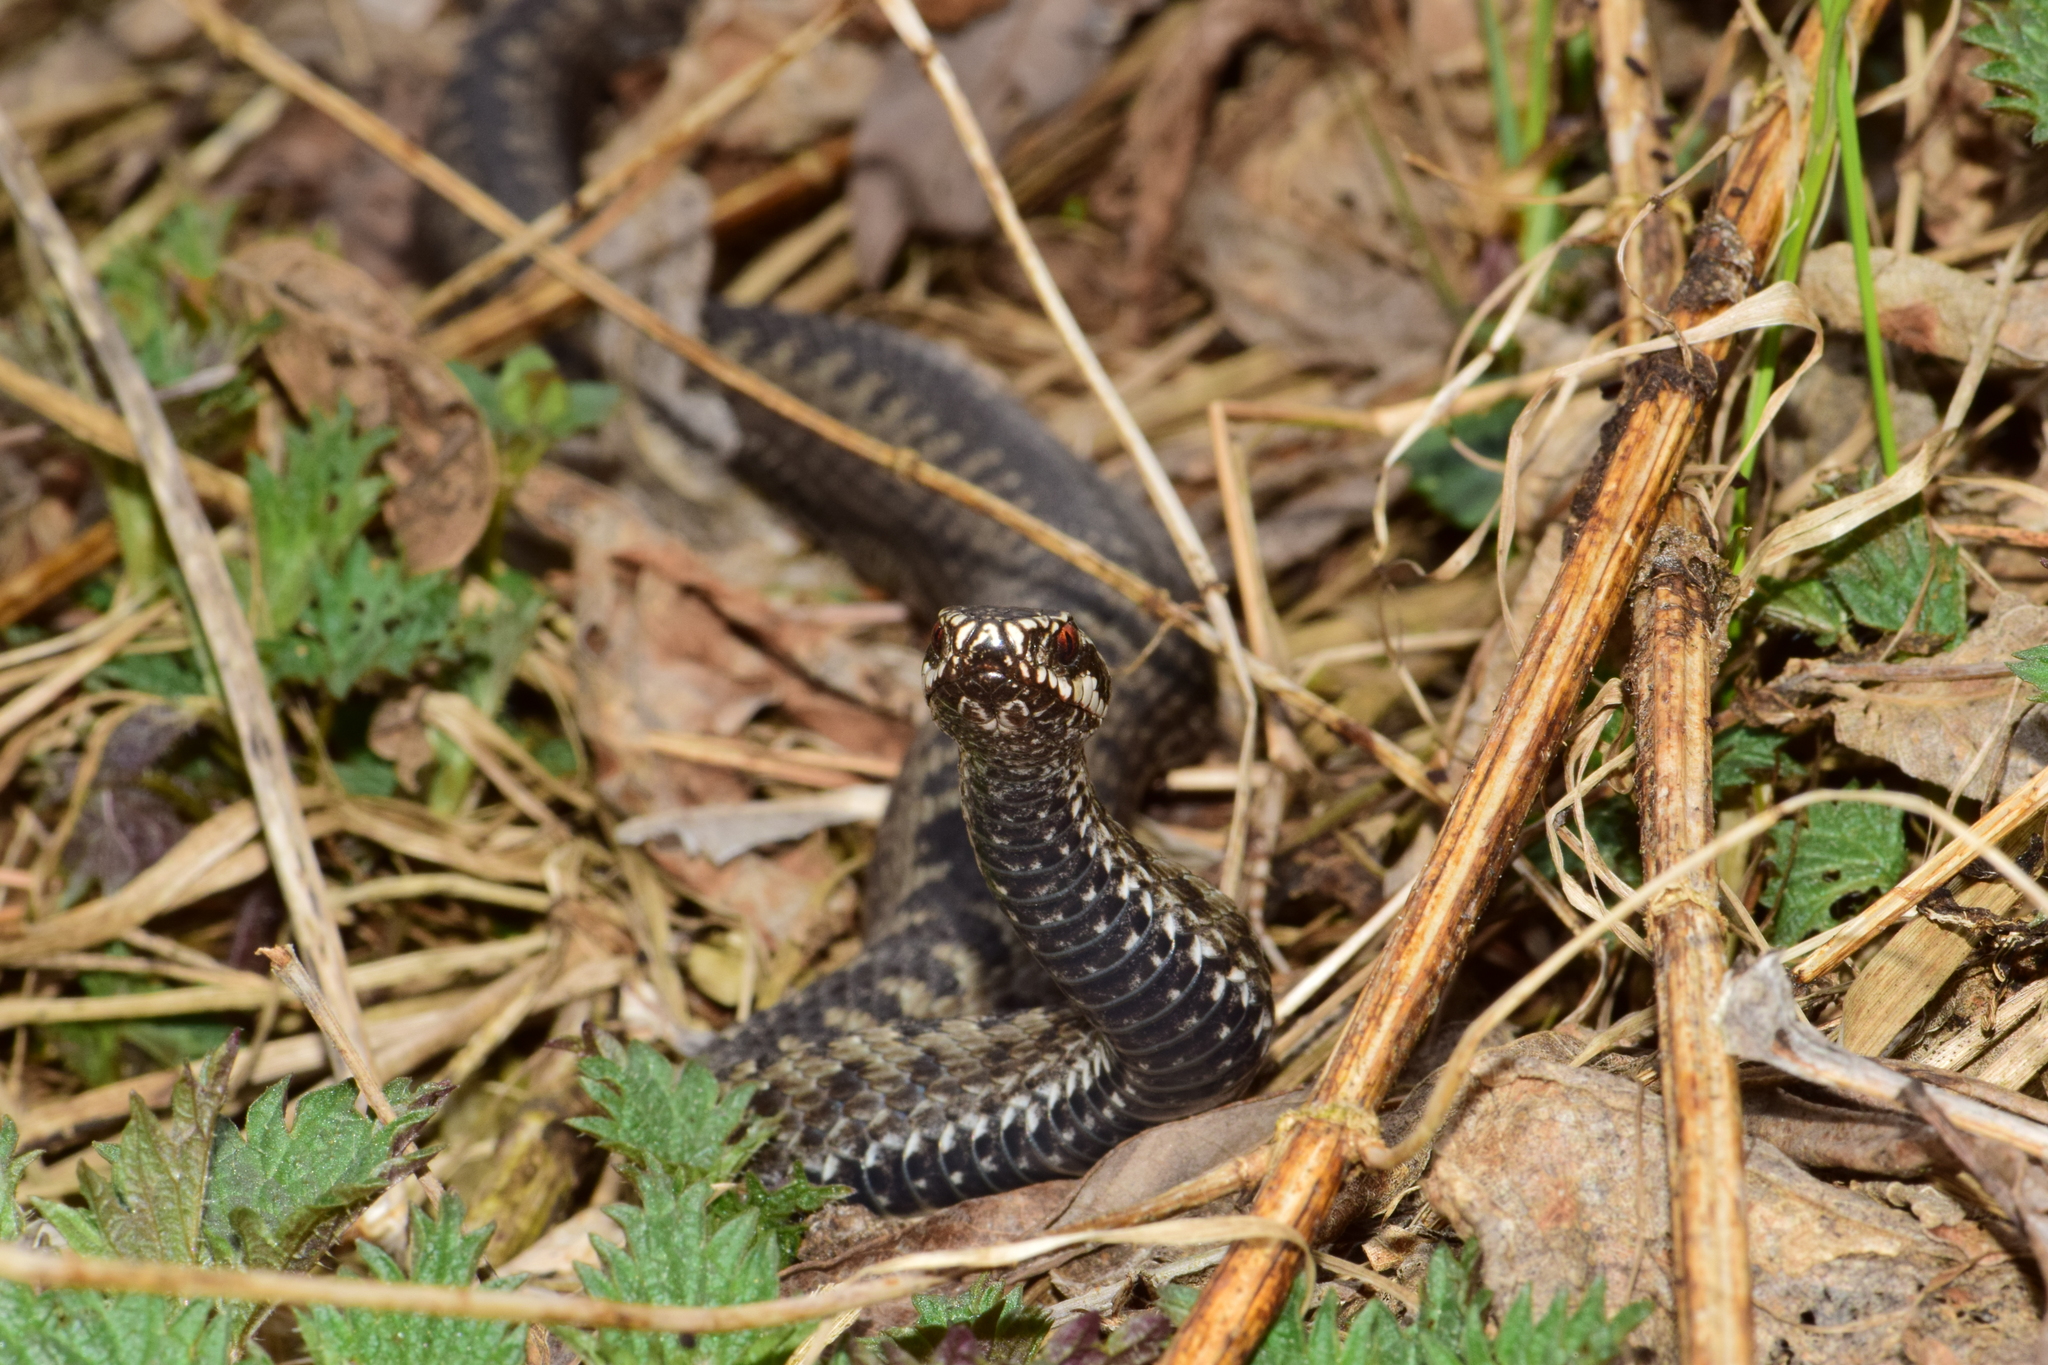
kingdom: Animalia
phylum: Chordata
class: Squamata
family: Viperidae
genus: Vipera
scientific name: Vipera berus
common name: Adder
